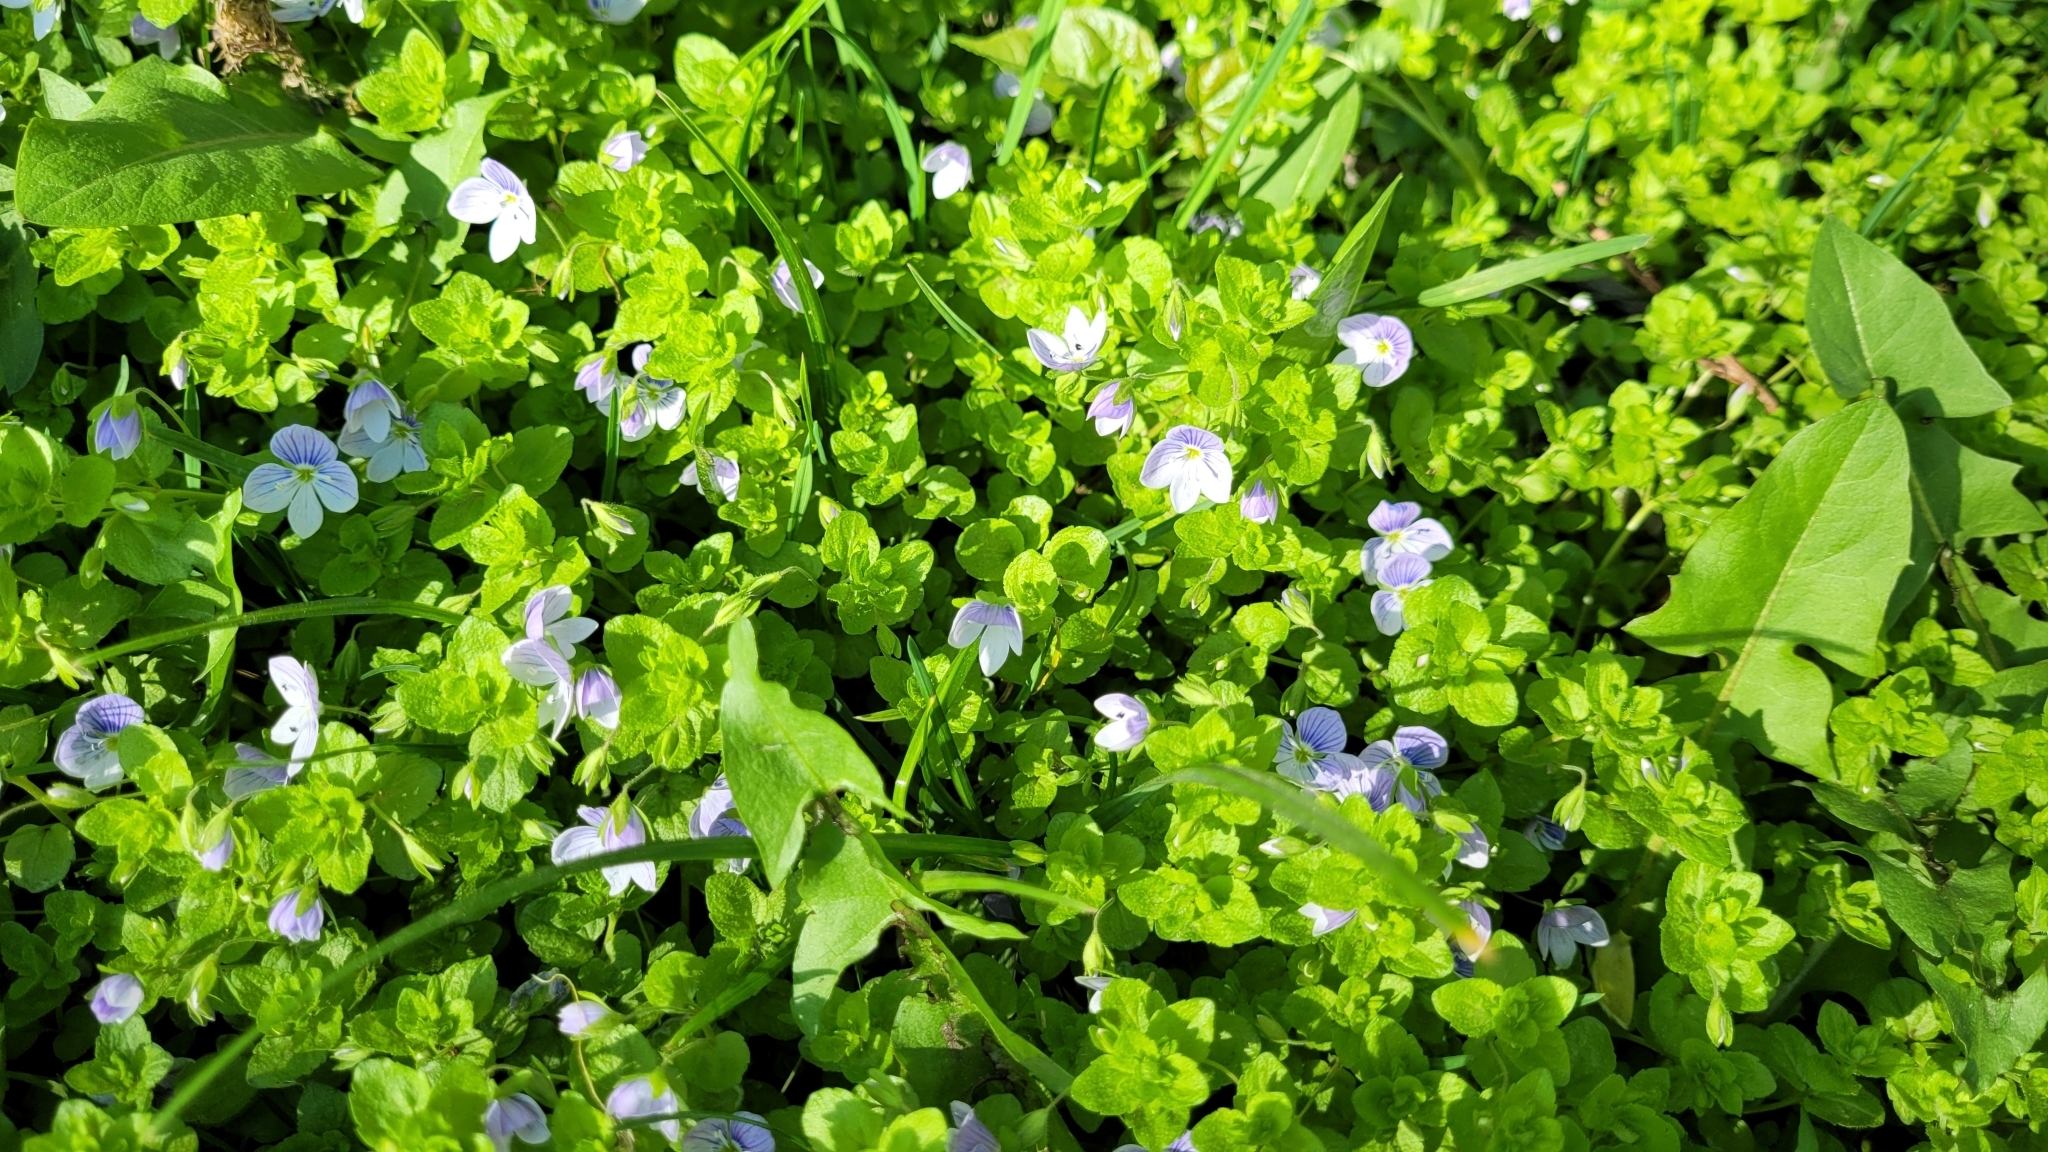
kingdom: Plantae
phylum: Tracheophyta
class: Magnoliopsida
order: Lamiales
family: Plantaginaceae
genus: Veronica
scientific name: Veronica filiformis
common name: Slender speedwell
